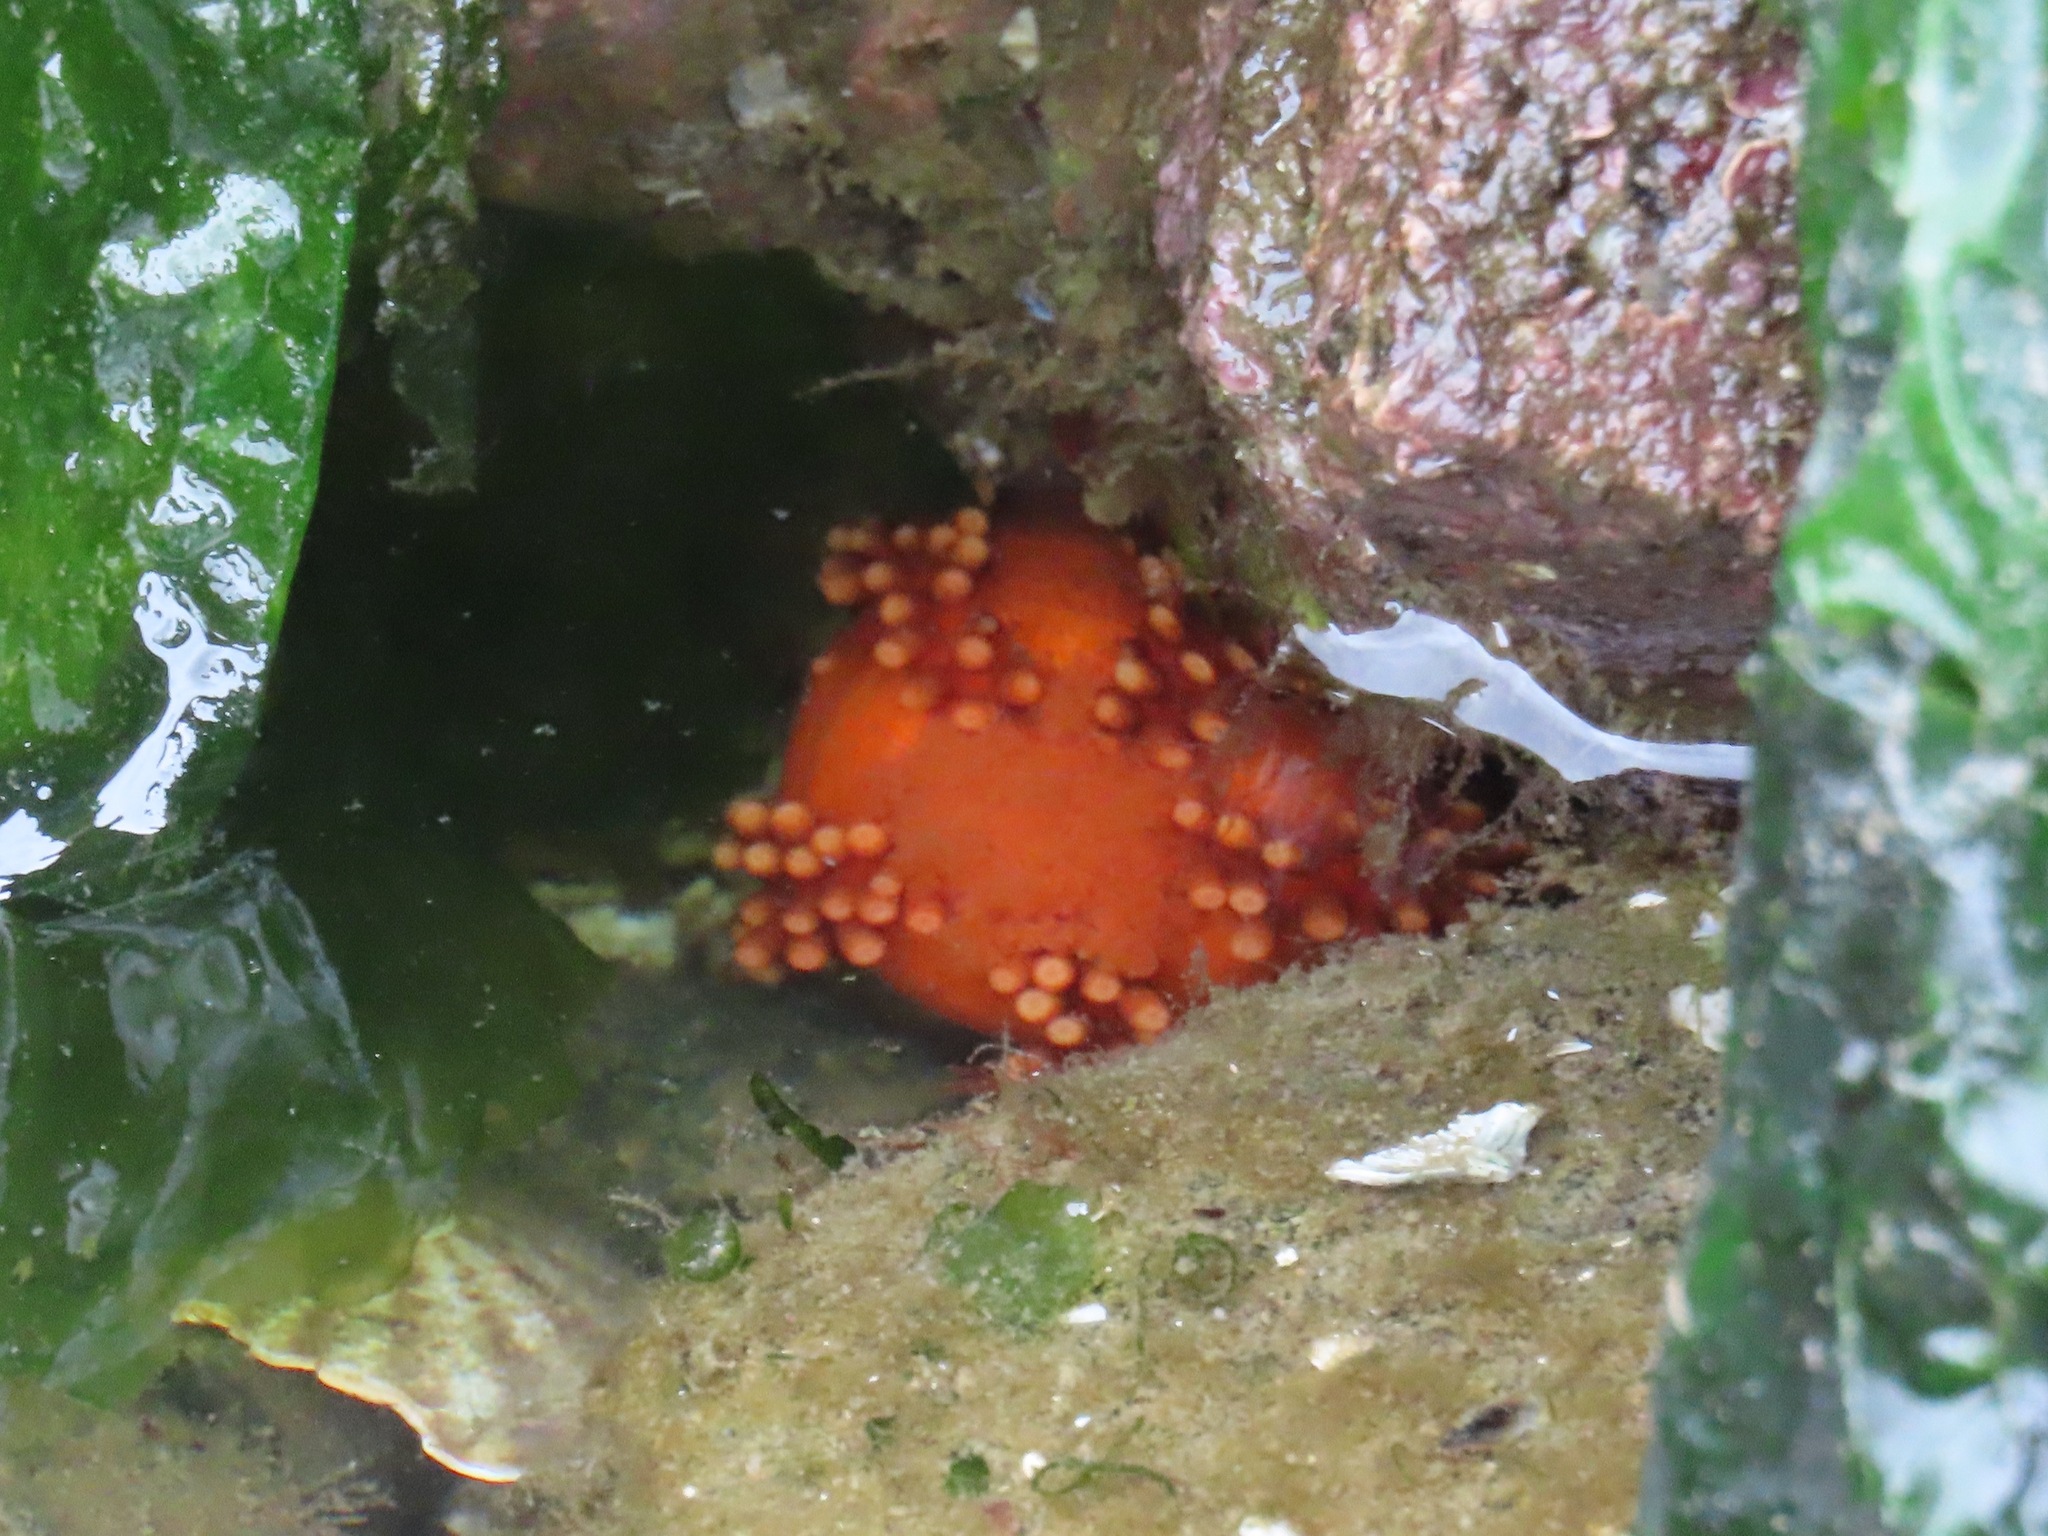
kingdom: Animalia
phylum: Echinodermata
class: Holothuroidea
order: Dendrochirotida
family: Cucumariidae
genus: Cucumaria
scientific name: Cucumaria miniata
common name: Orange sea cucumber
